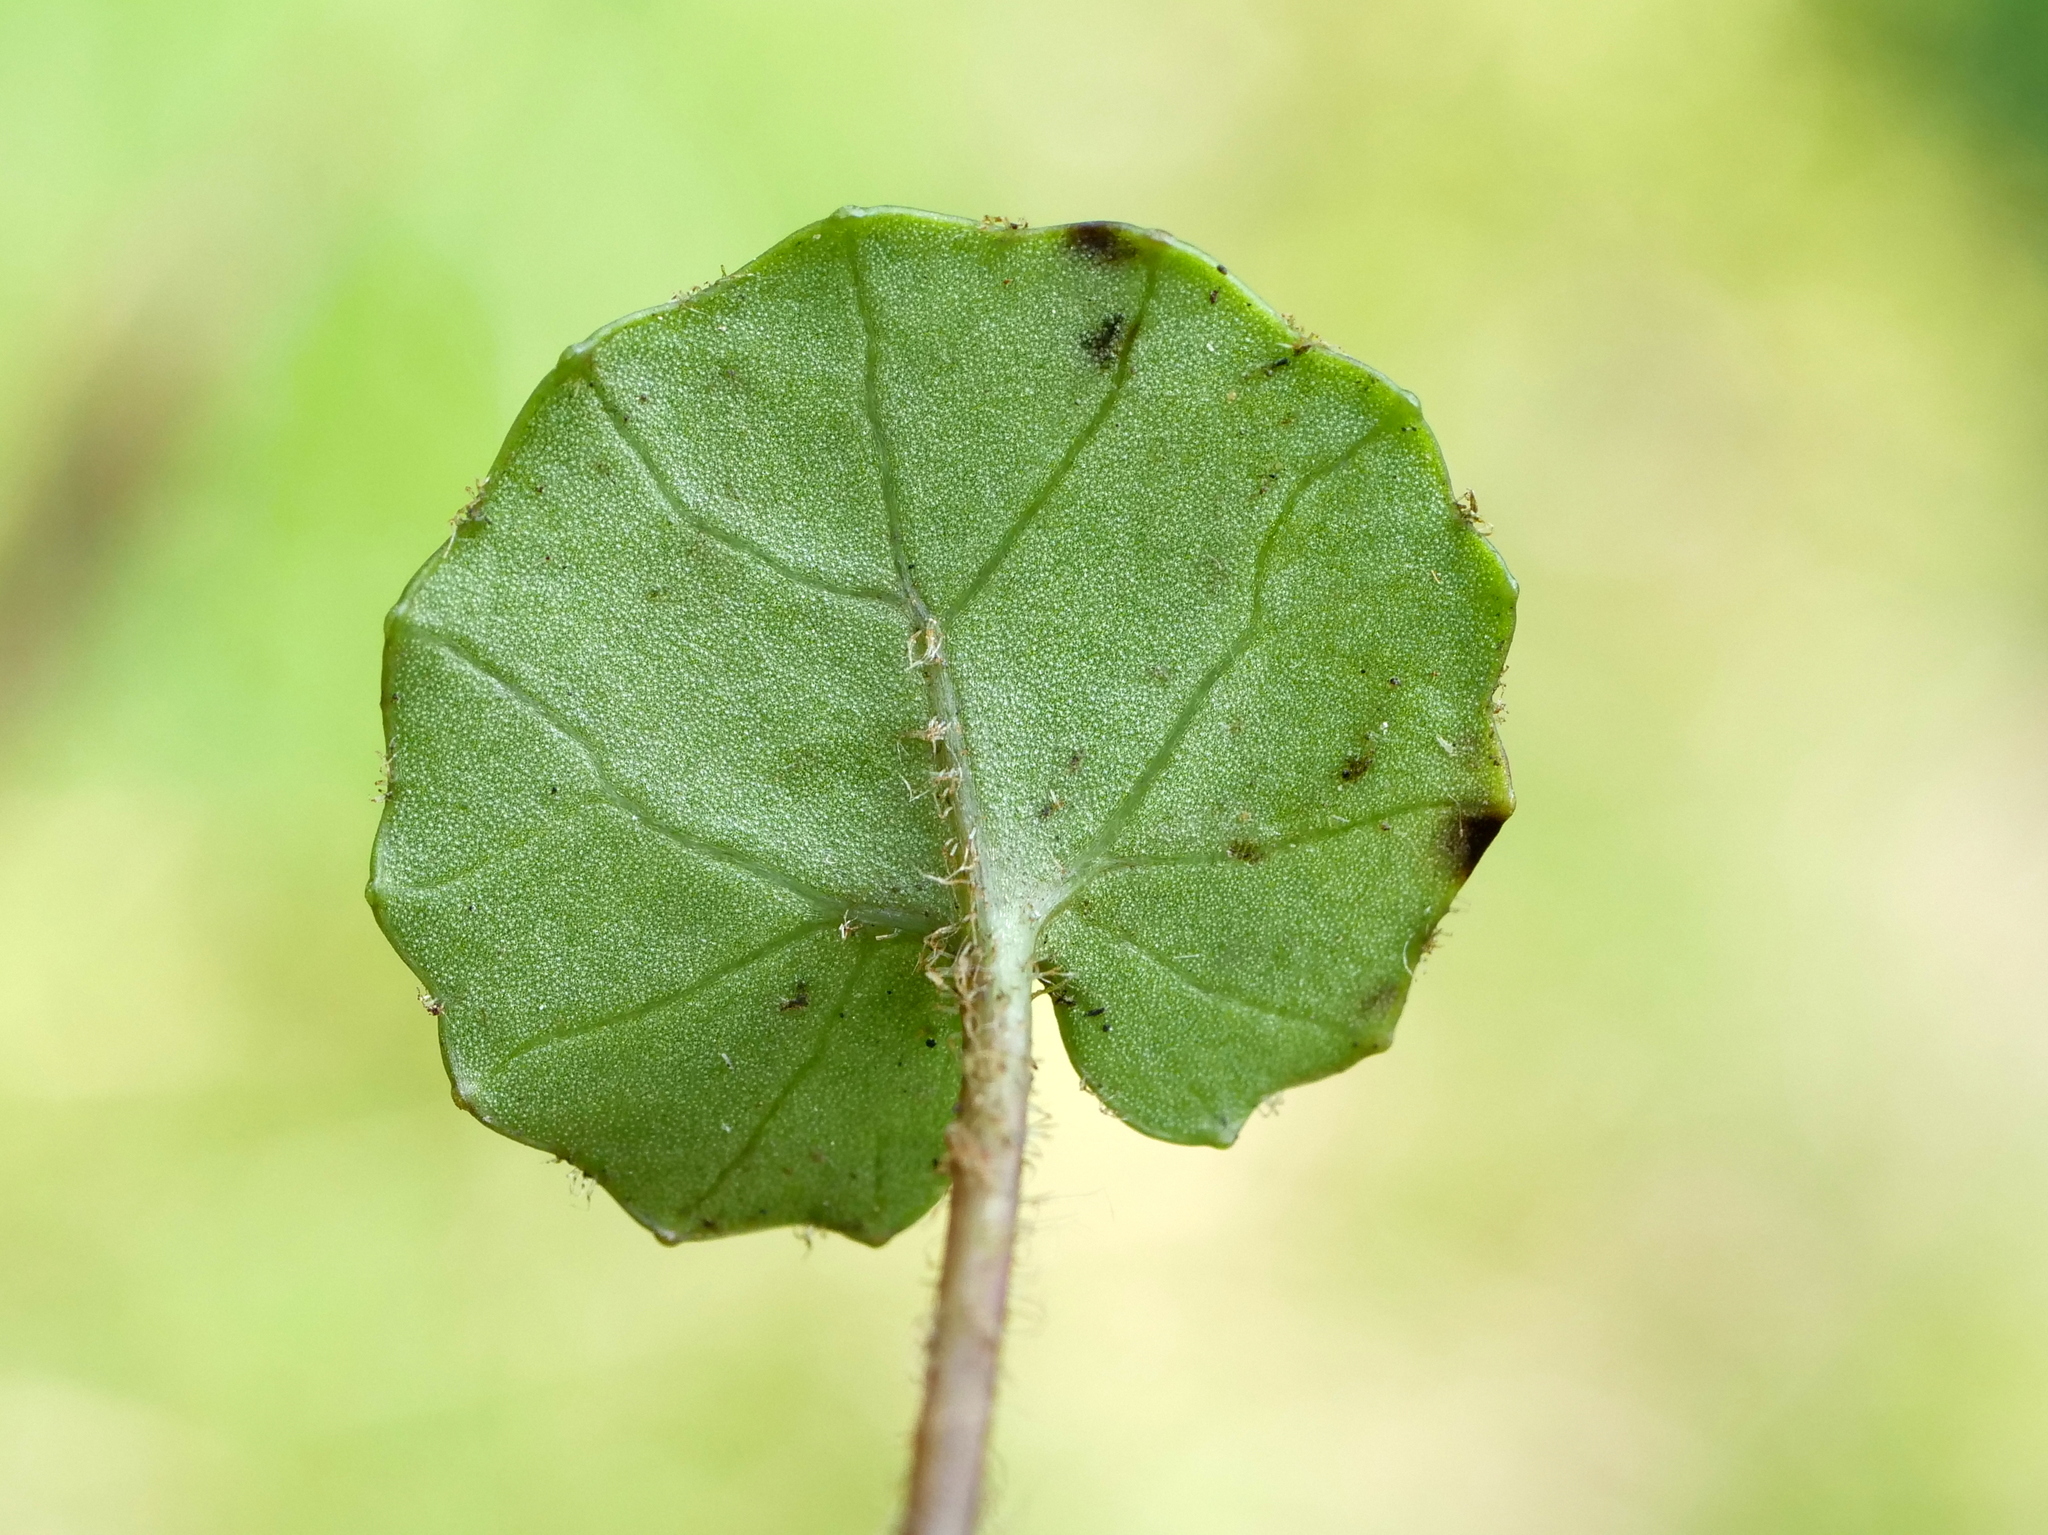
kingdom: Plantae
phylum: Tracheophyta
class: Magnoliopsida
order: Asterales
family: Asteraceae
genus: Homogyne
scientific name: Homogyne alpina
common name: Purple colt's-foot
